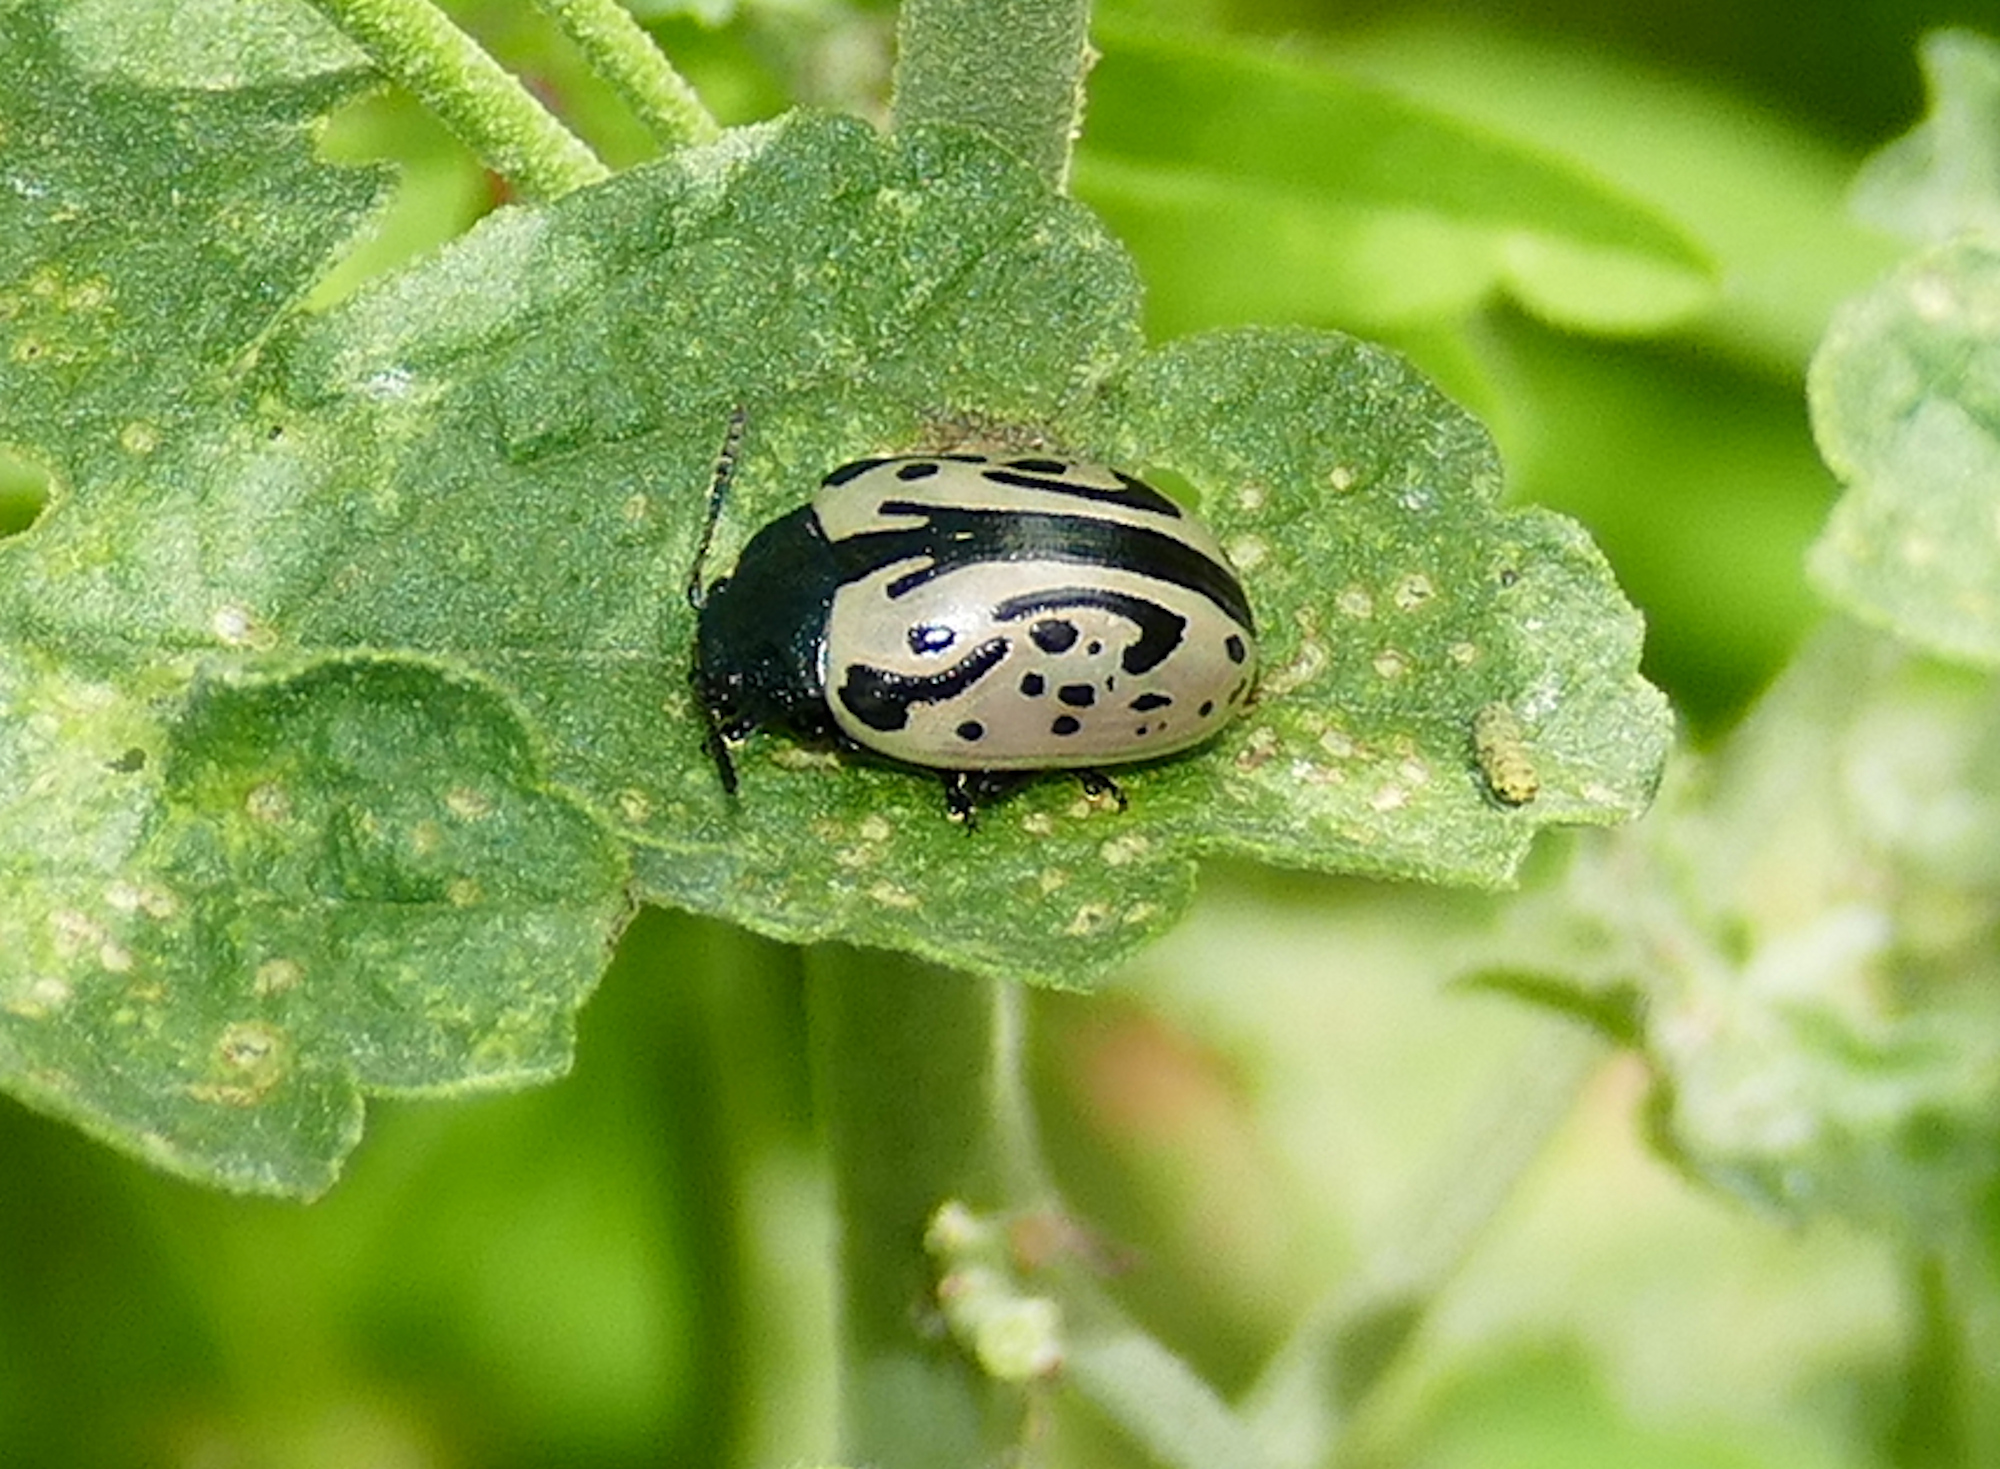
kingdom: Animalia
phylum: Arthropoda
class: Insecta
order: Coleoptera
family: Chrysomelidae
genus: Calligrapha
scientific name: Calligrapha dislocata
